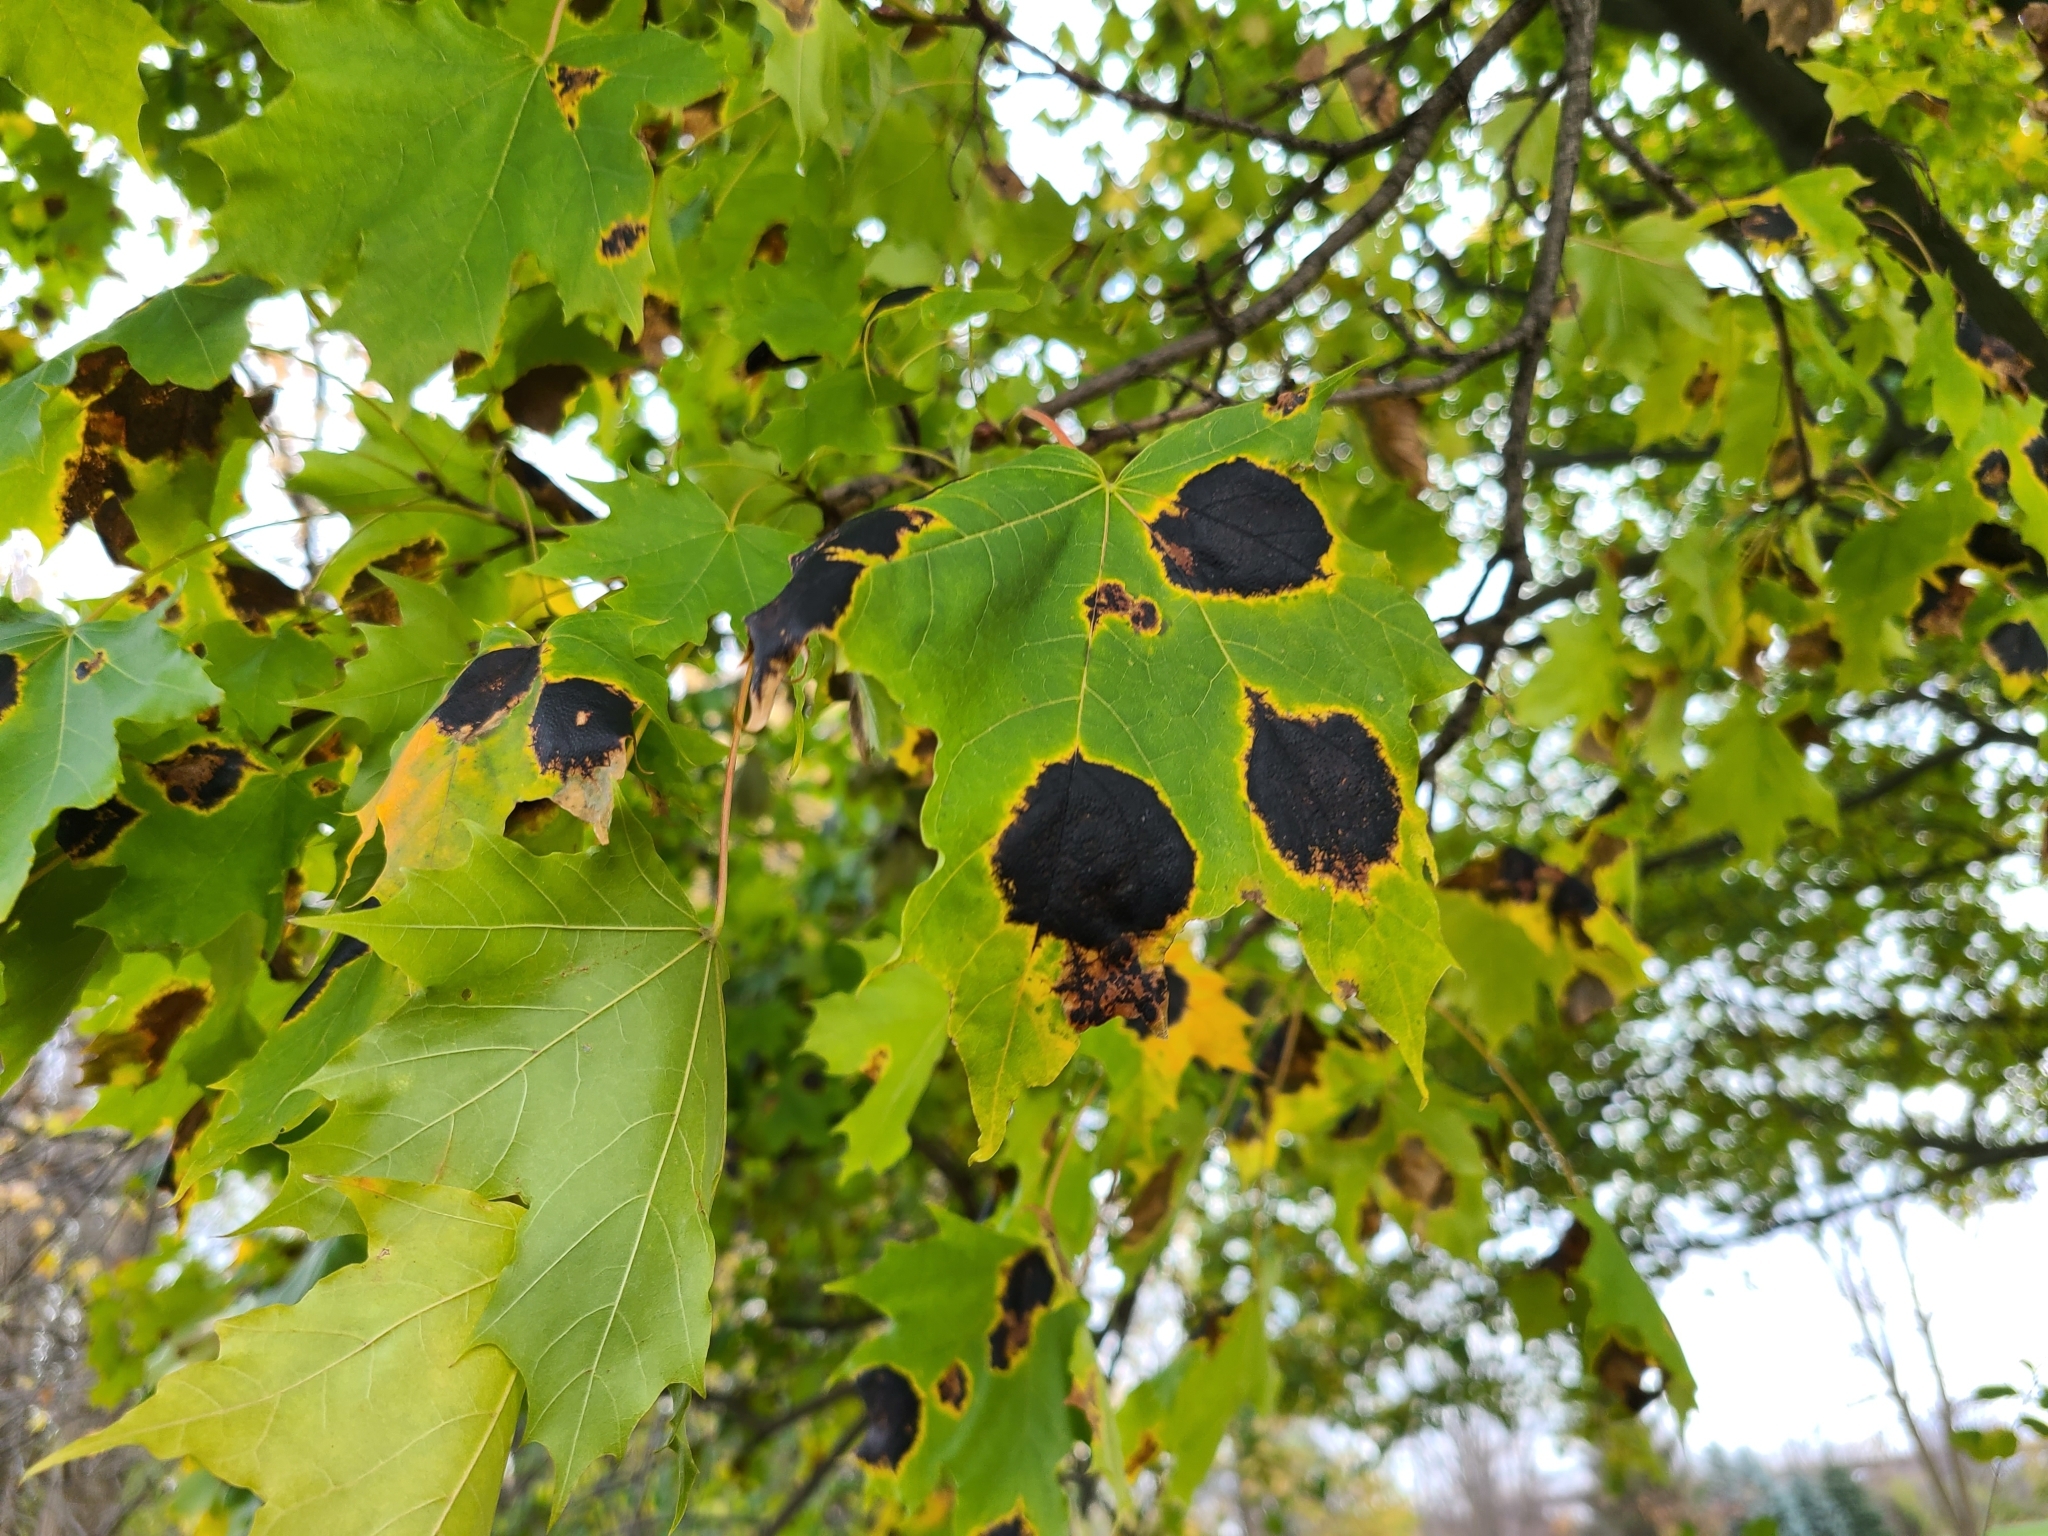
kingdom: Fungi
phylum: Ascomycota
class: Leotiomycetes
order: Rhytismatales
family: Rhytismataceae
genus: Rhytisma
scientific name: Rhytisma acerinum
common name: European tar spot
